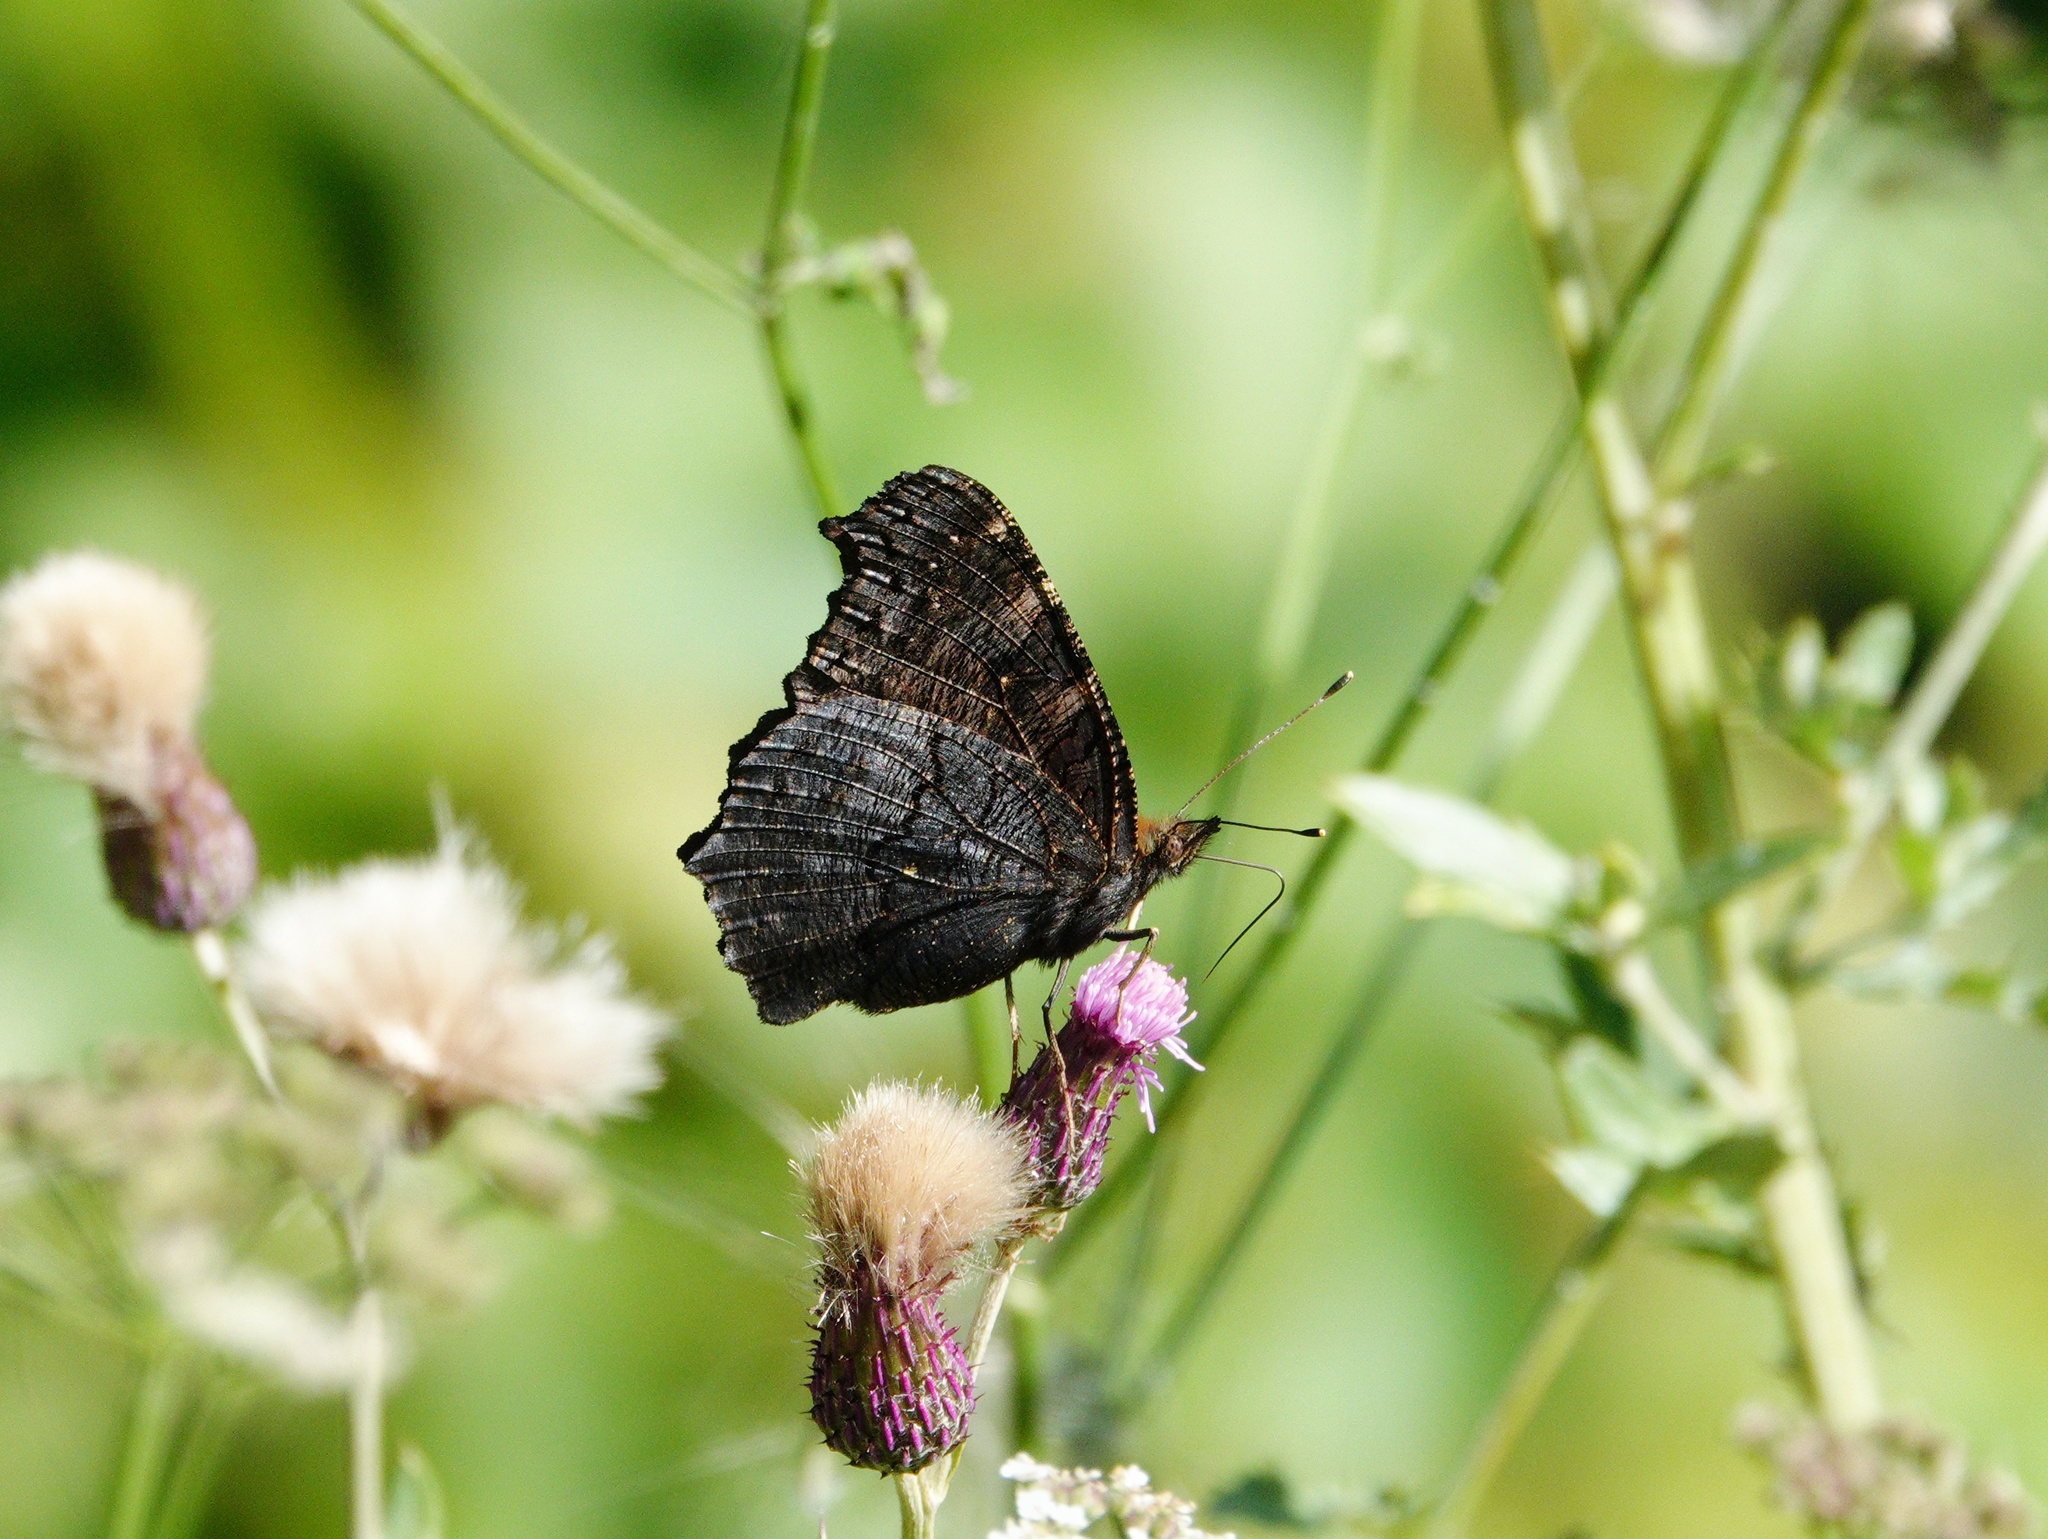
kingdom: Animalia
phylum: Arthropoda
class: Insecta
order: Lepidoptera
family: Nymphalidae
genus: Aglais
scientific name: Aglais io
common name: Peacock
